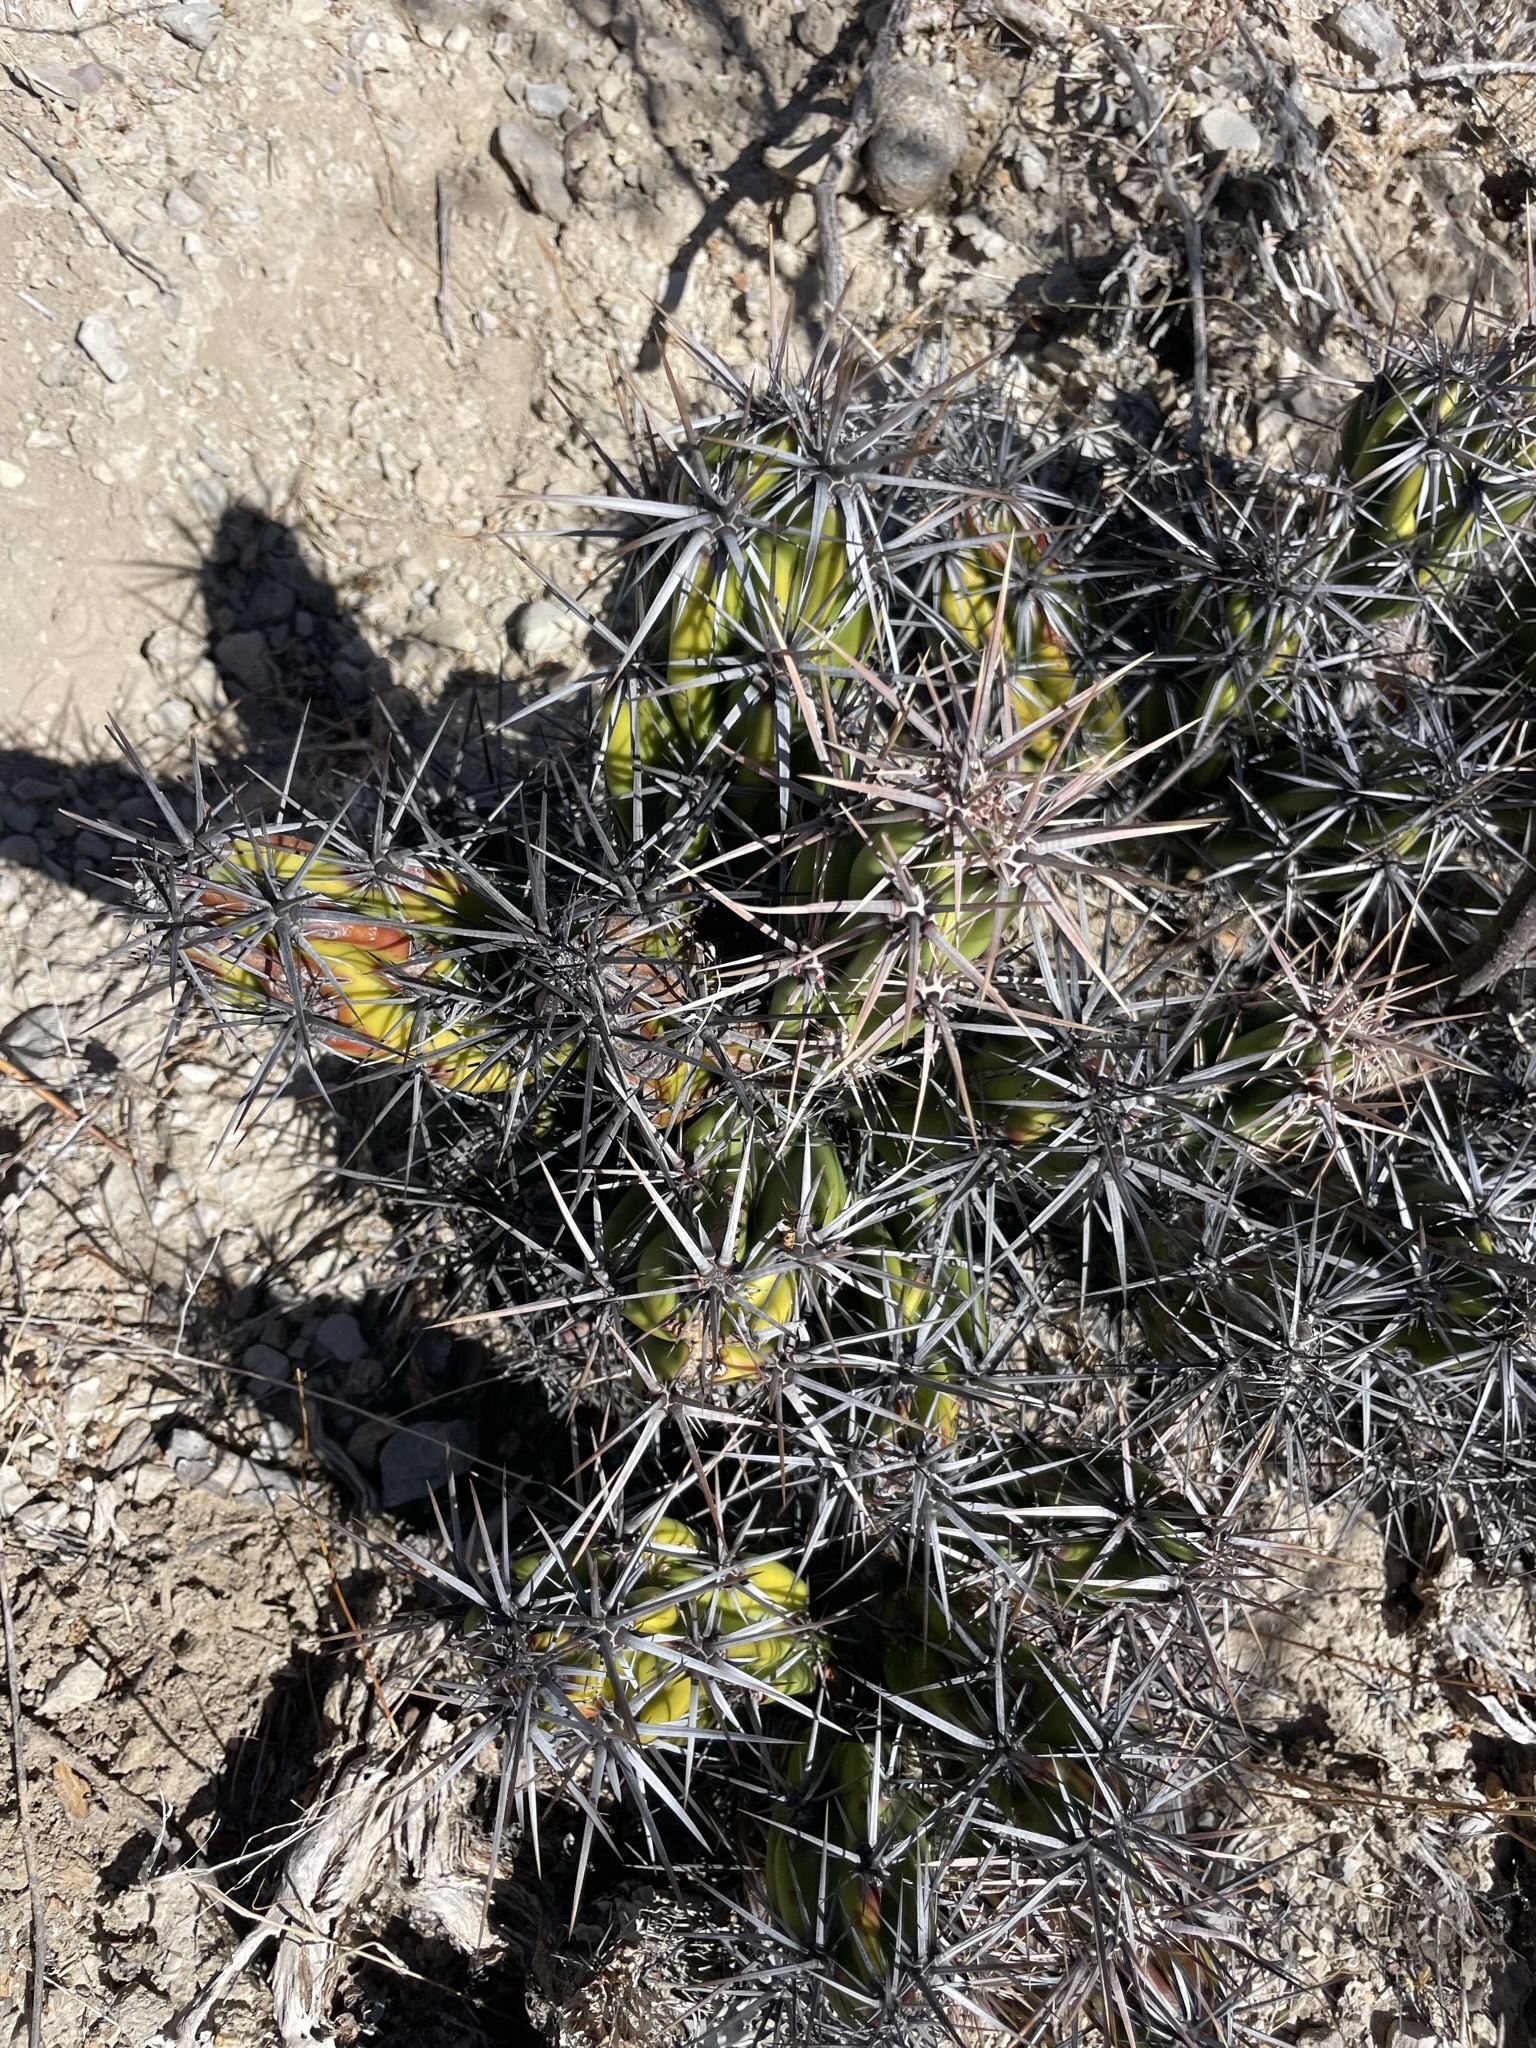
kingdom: Plantae
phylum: Tracheophyta
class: Magnoliopsida
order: Caryophyllales
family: Cactaceae
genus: Grusonia
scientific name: Grusonia invicta
